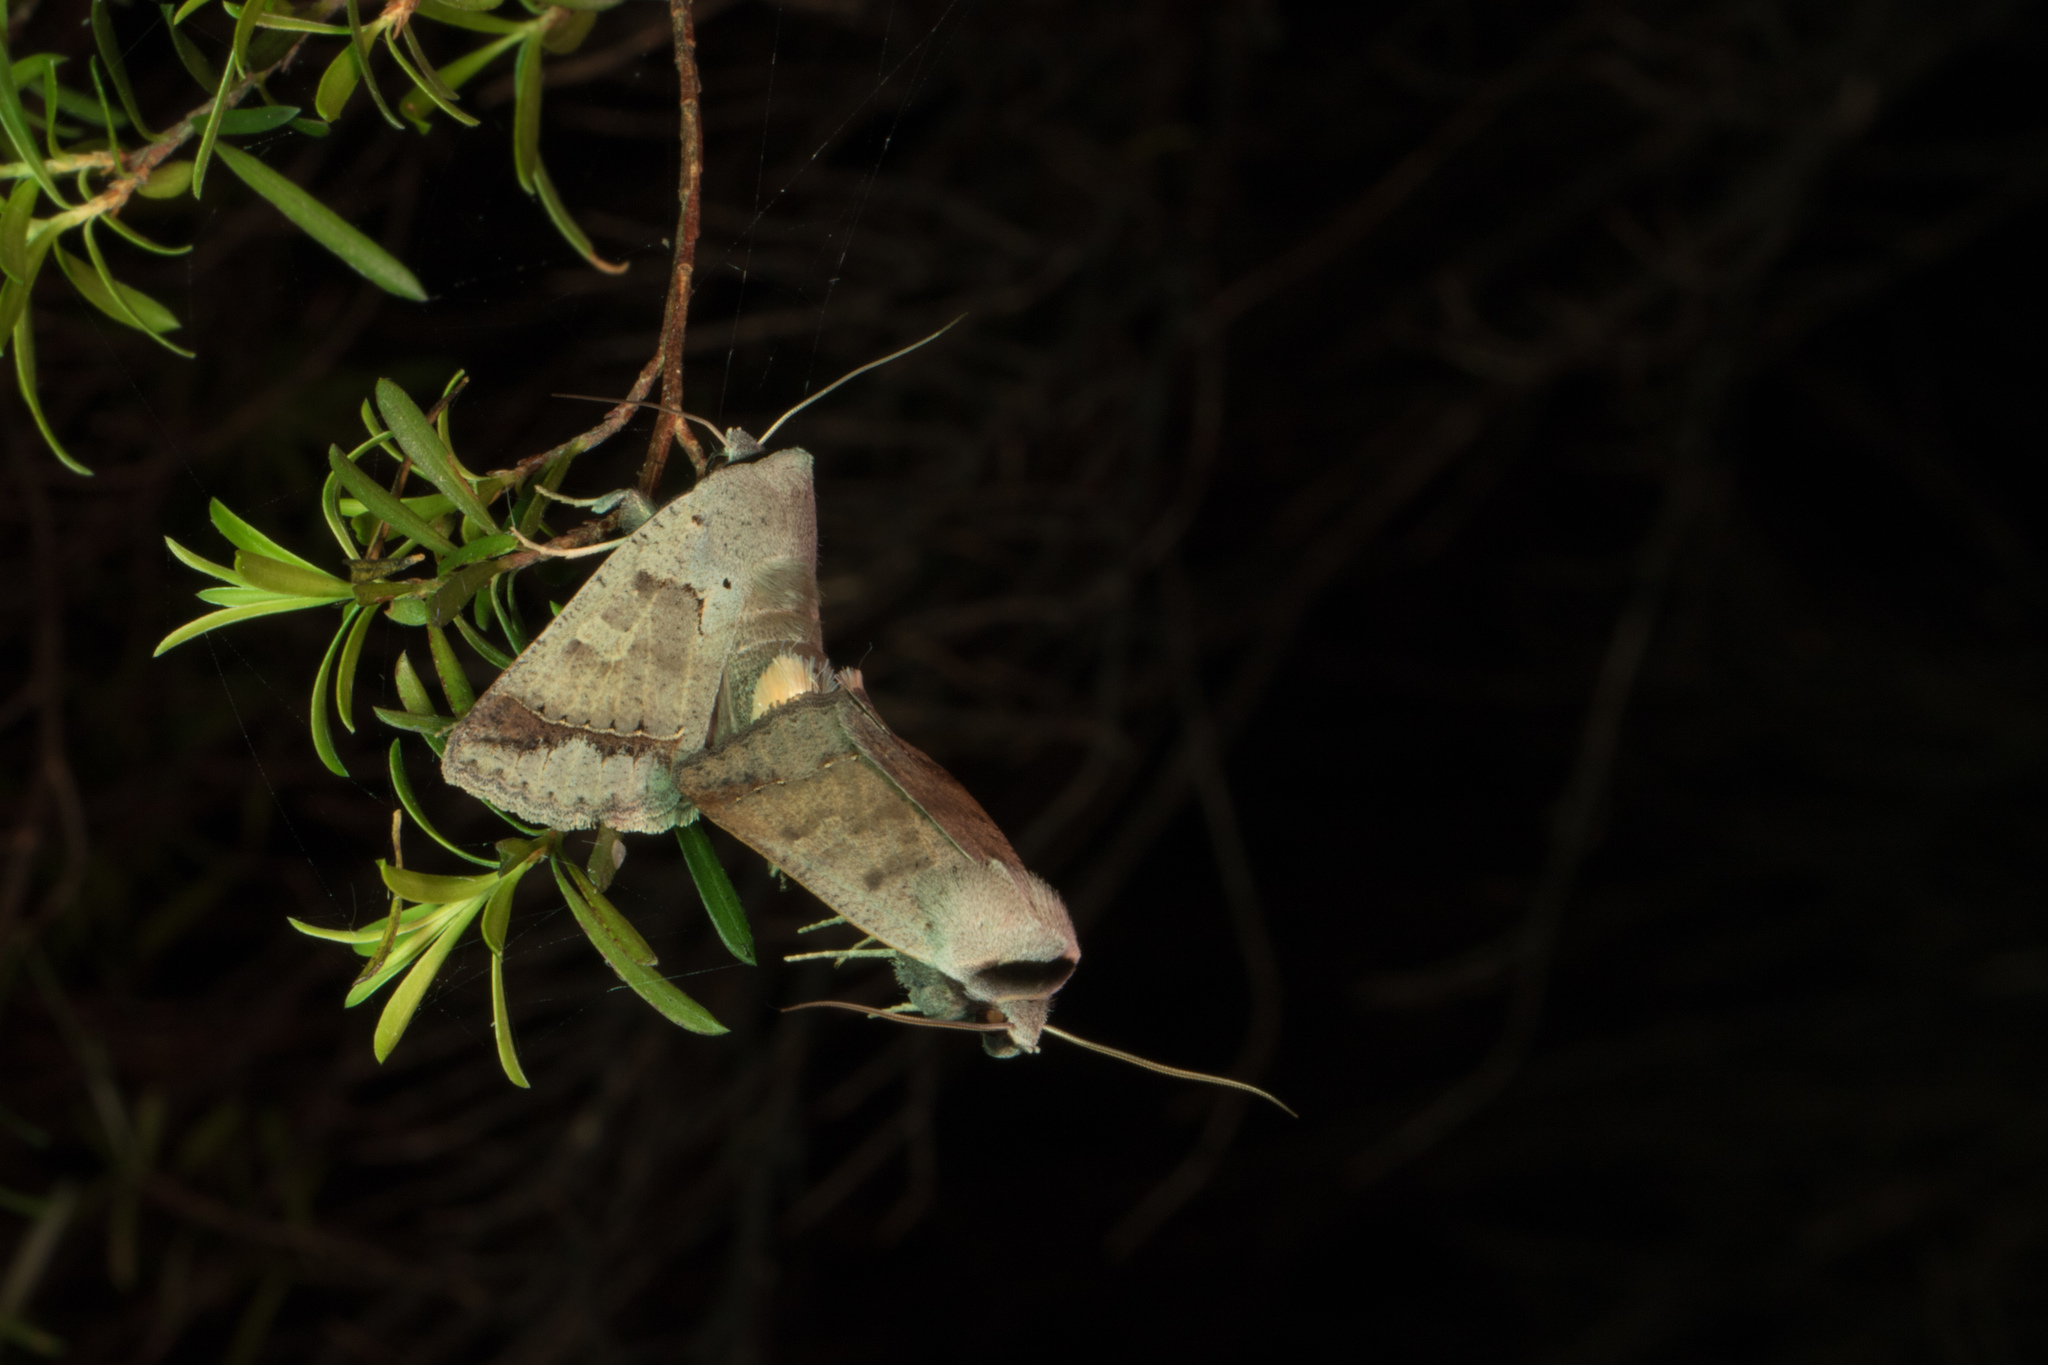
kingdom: Animalia
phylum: Arthropoda
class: Insecta
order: Lepidoptera
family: Erebidae
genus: Pantydia
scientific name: Pantydia sparsa
